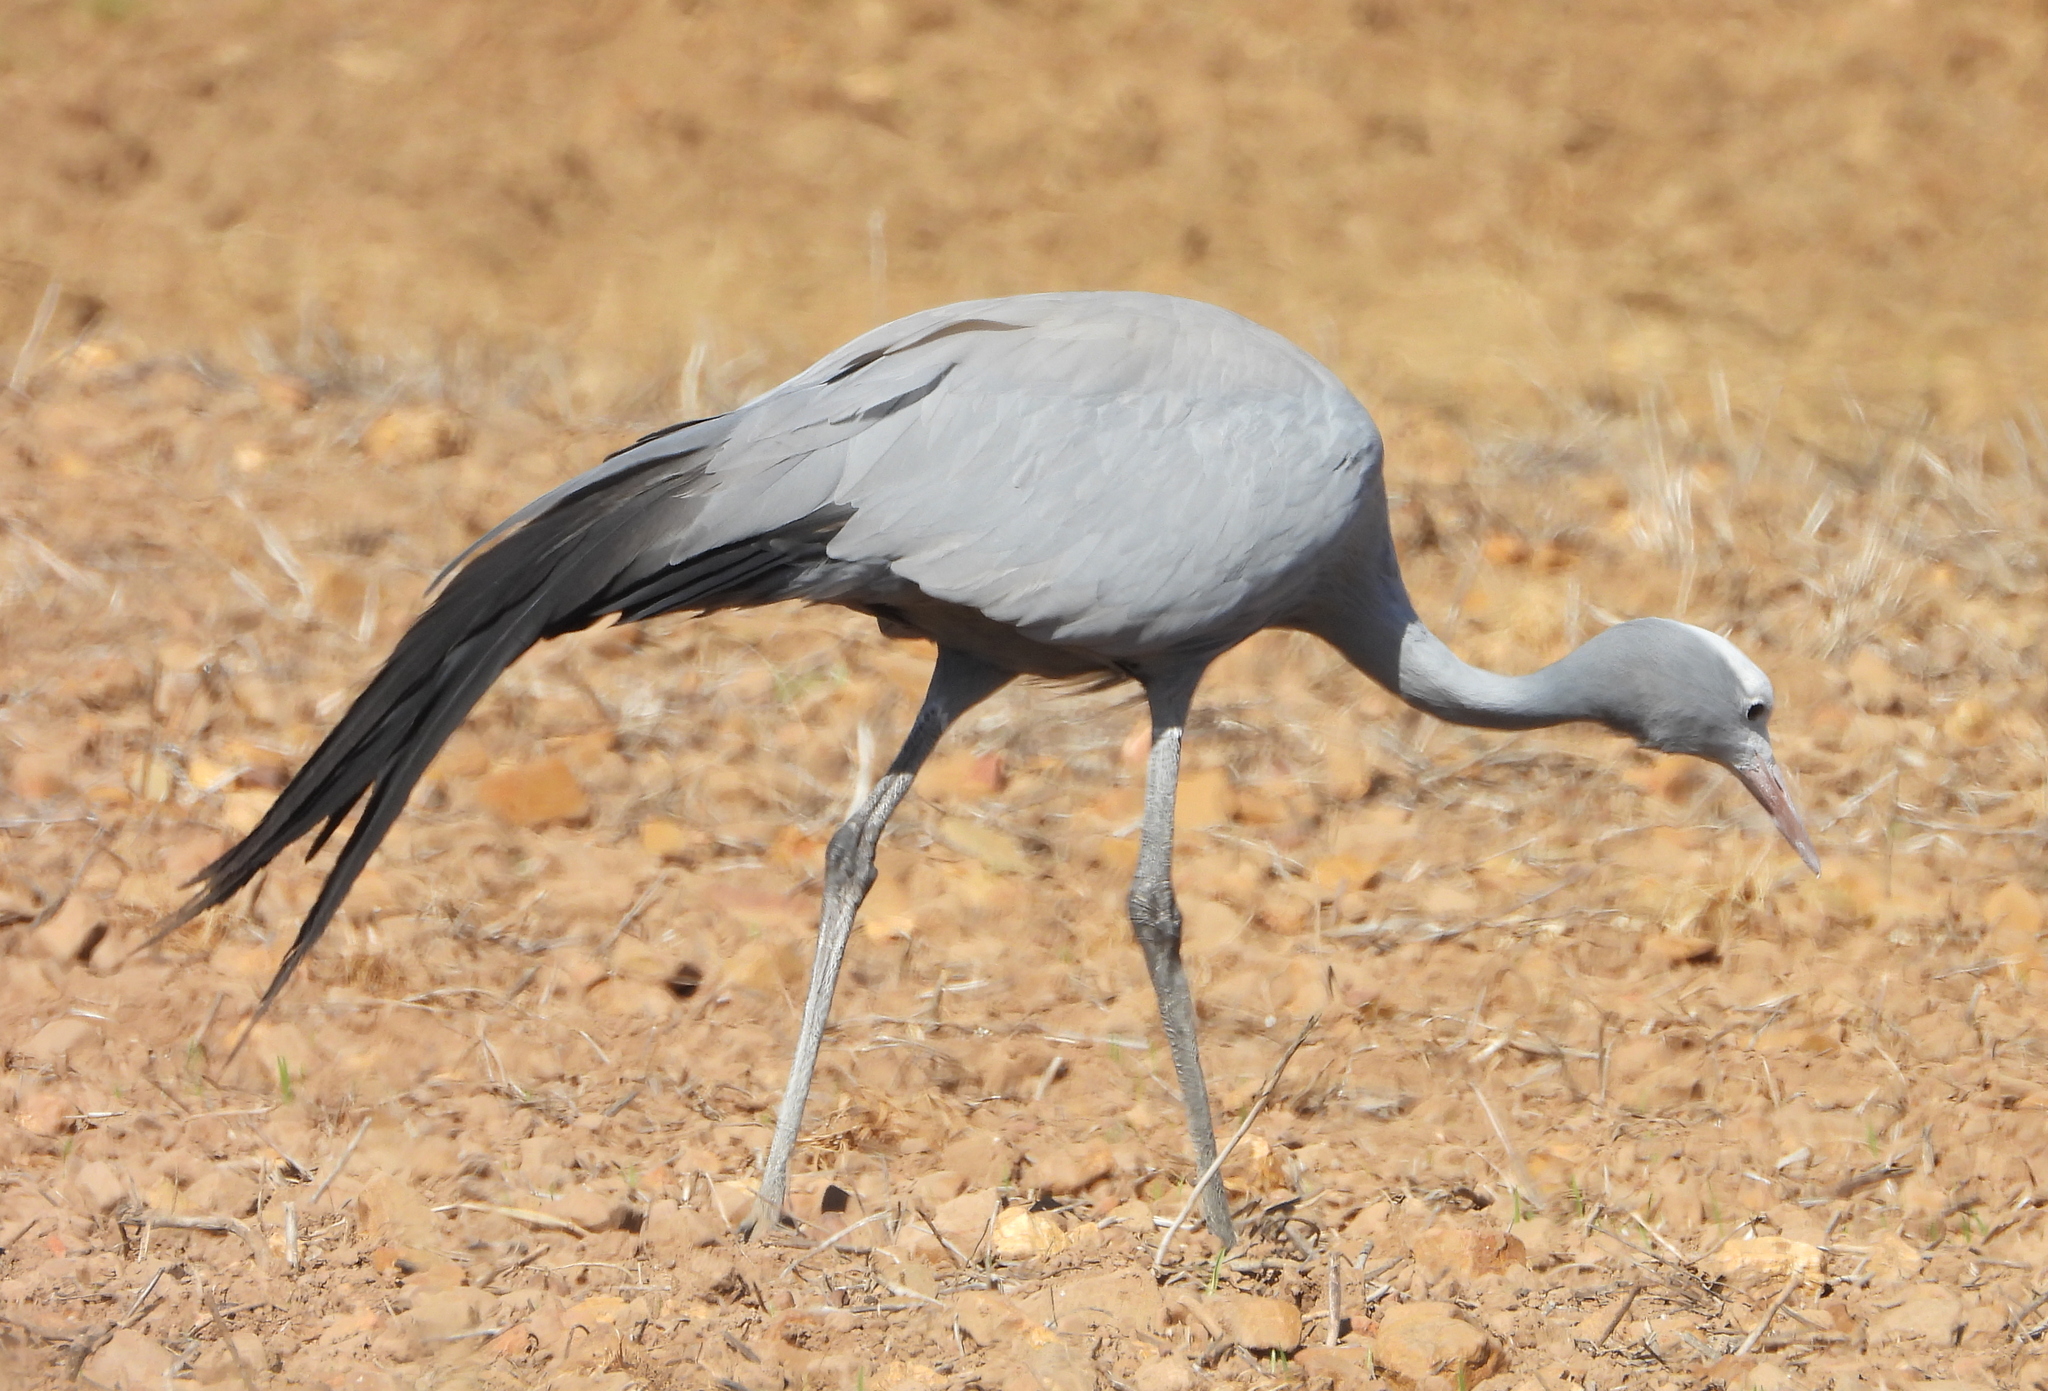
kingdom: Animalia
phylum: Chordata
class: Aves
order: Gruiformes
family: Gruidae
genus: Anthropoides
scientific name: Anthropoides paradiseus
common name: Blue crane
